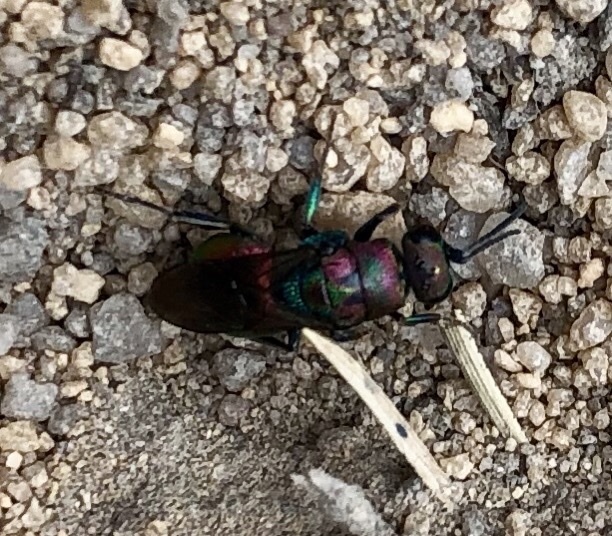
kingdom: Animalia
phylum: Arthropoda
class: Insecta
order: Hymenoptera
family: Chrysididae
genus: Hedychrum
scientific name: Hedychrum rutilans
